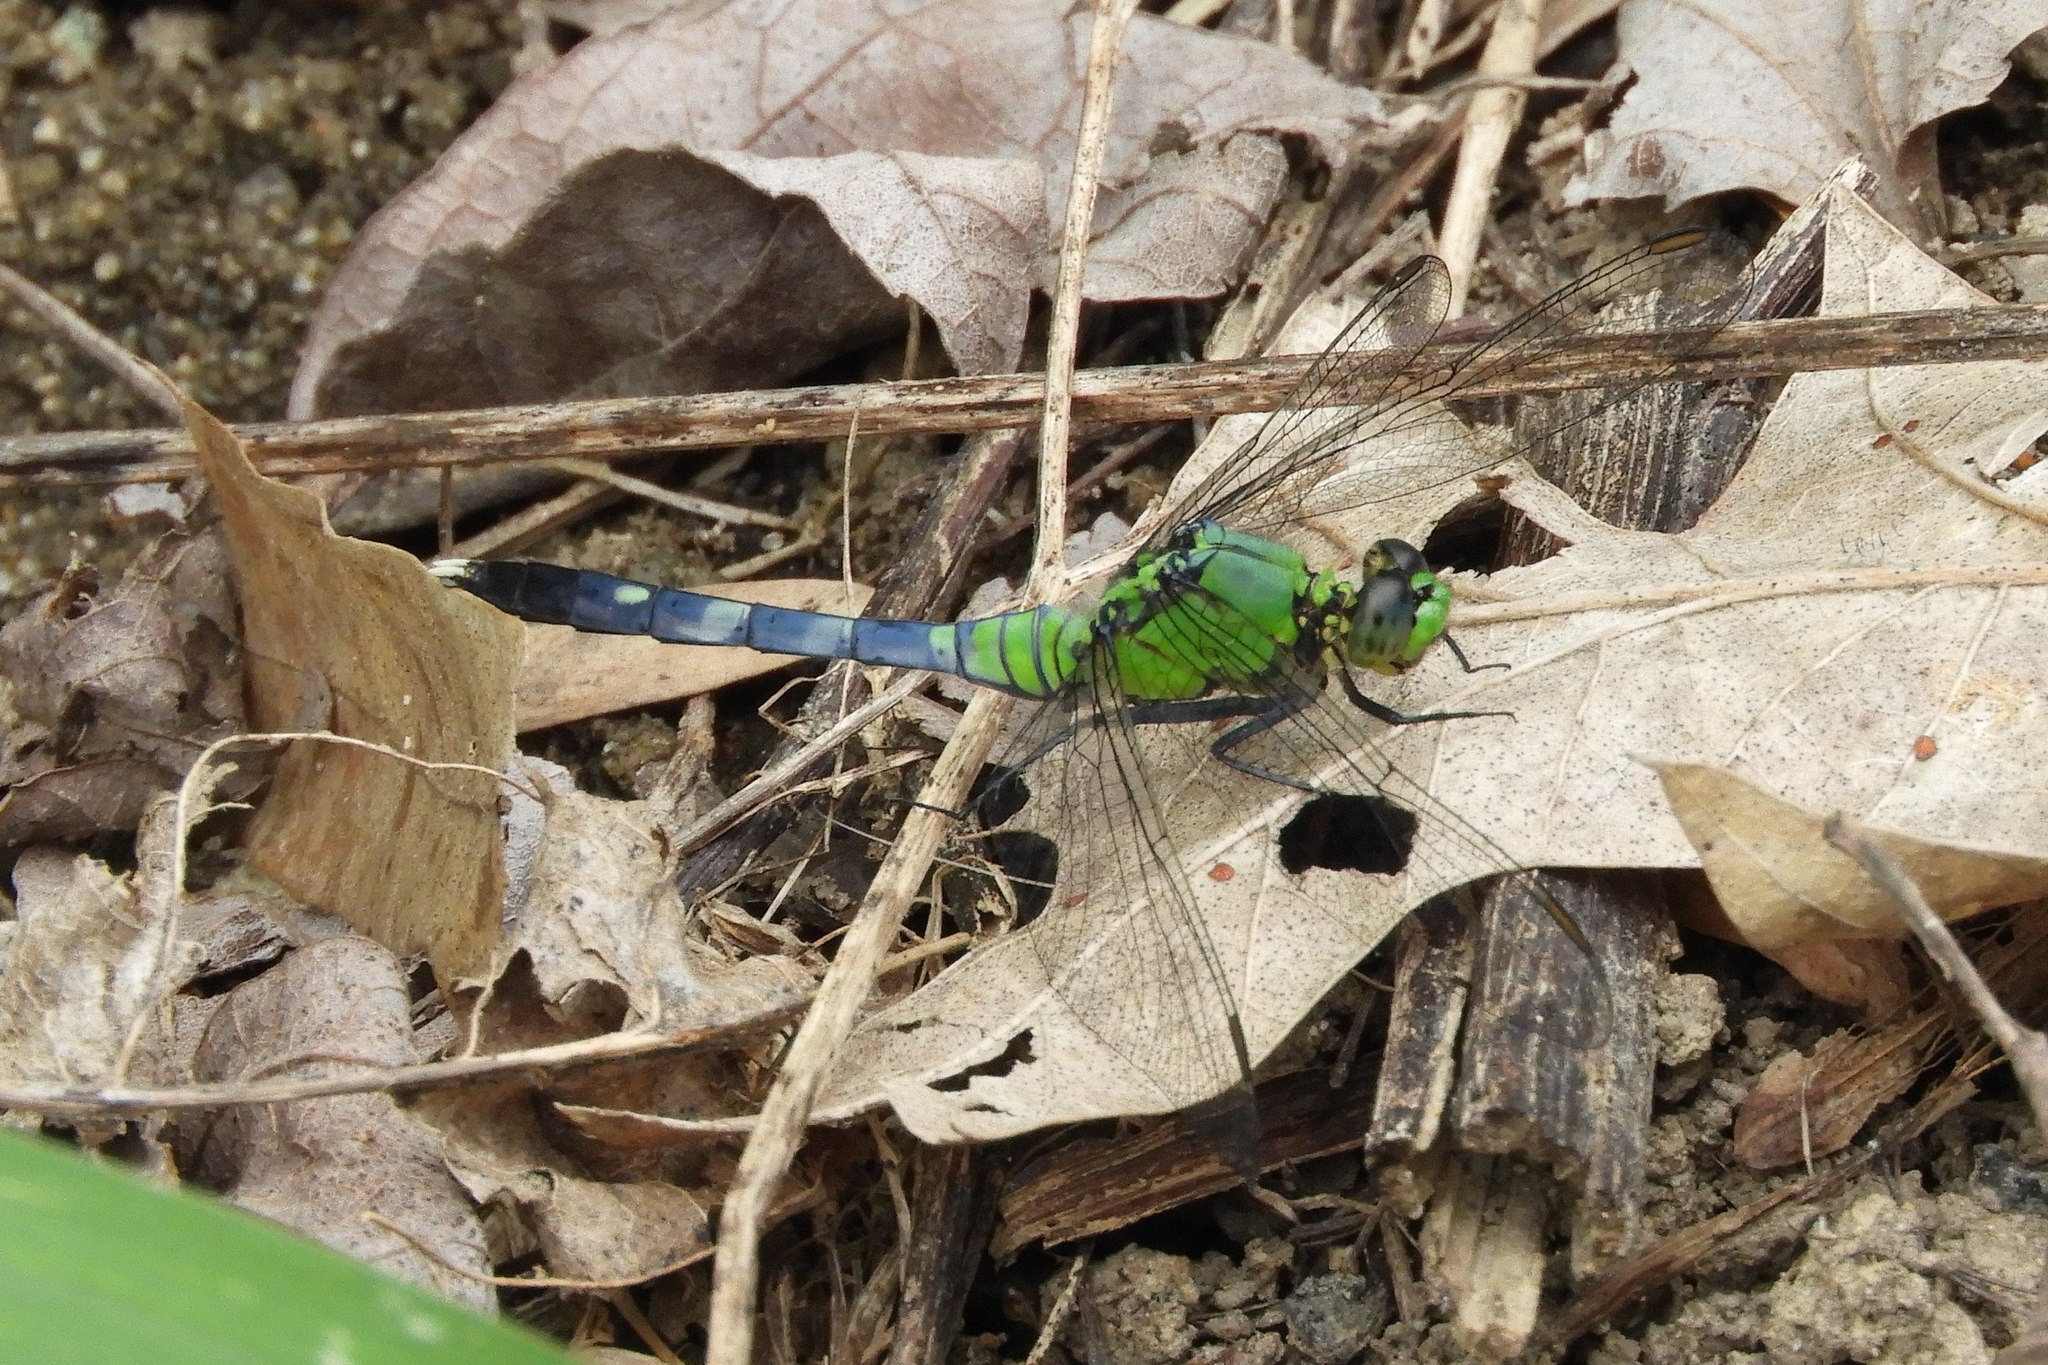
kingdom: Animalia
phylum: Arthropoda
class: Insecta
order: Odonata
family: Libellulidae
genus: Erythemis
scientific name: Erythemis simplicicollis
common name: Eastern pondhawk
